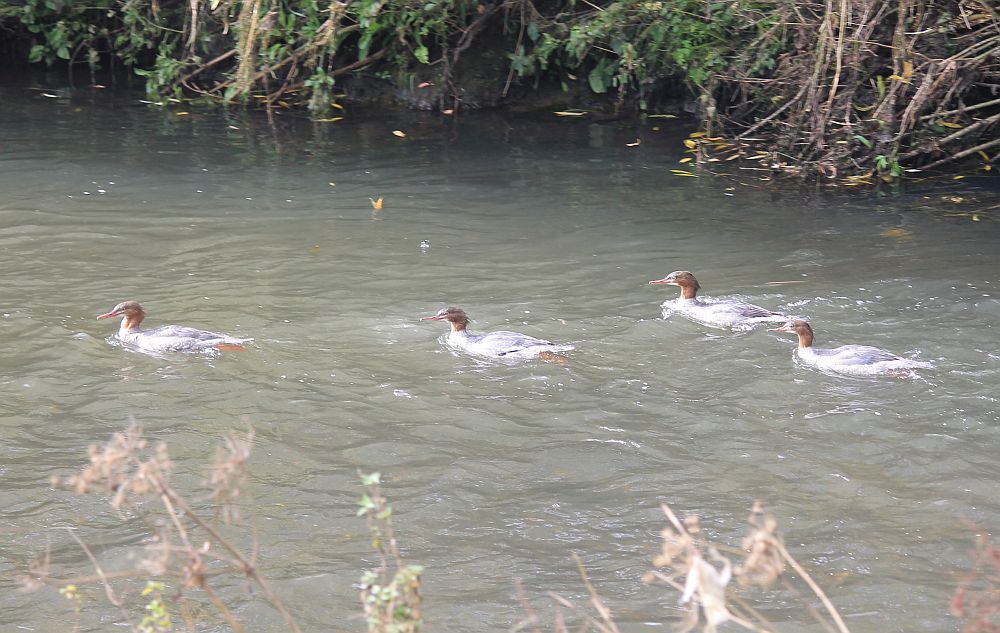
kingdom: Animalia
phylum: Chordata
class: Aves
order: Anseriformes
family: Anatidae
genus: Mergus
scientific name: Mergus merganser
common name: Common merganser
